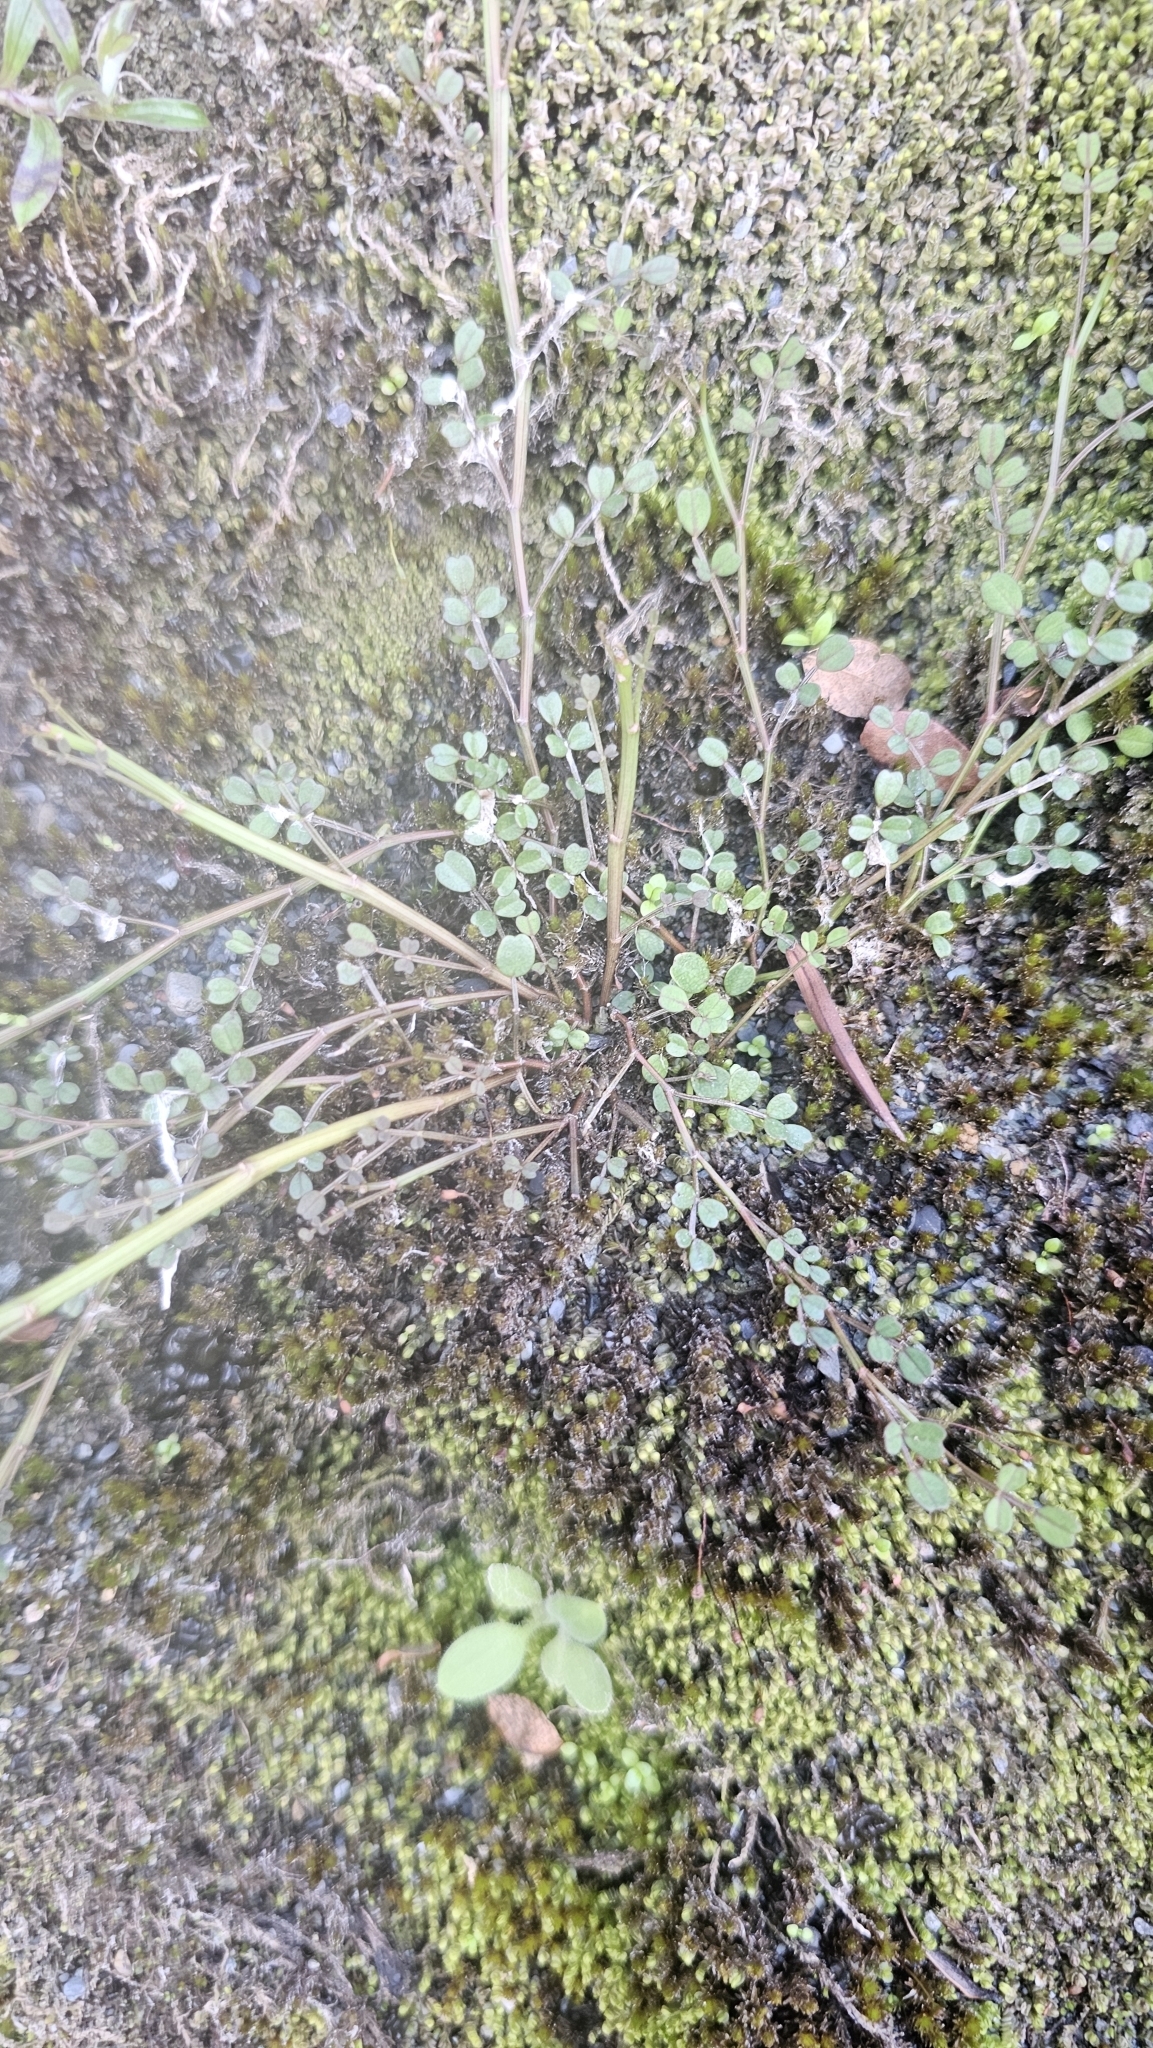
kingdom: Plantae
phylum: Tracheophyta
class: Magnoliopsida
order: Fabales
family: Fabaceae
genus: Carmichaelia
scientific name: Carmichaelia australis
